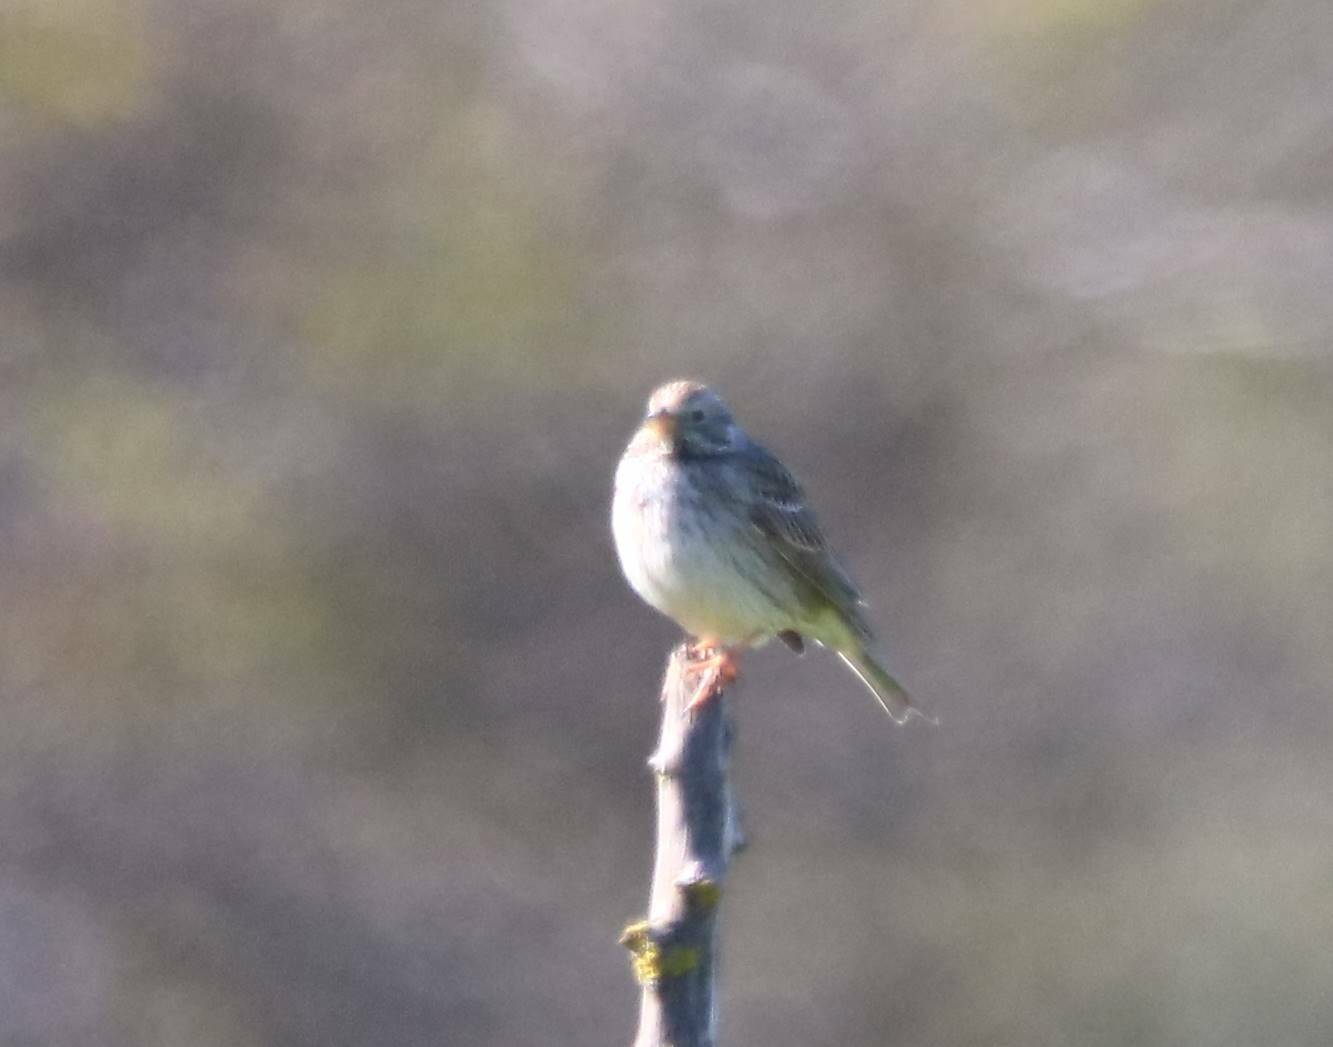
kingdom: Animalia
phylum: Chordata
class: Aves
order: Passeriformes
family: Emberizidae
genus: Emberiza
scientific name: Emberiza calandra
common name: Corn bunting
